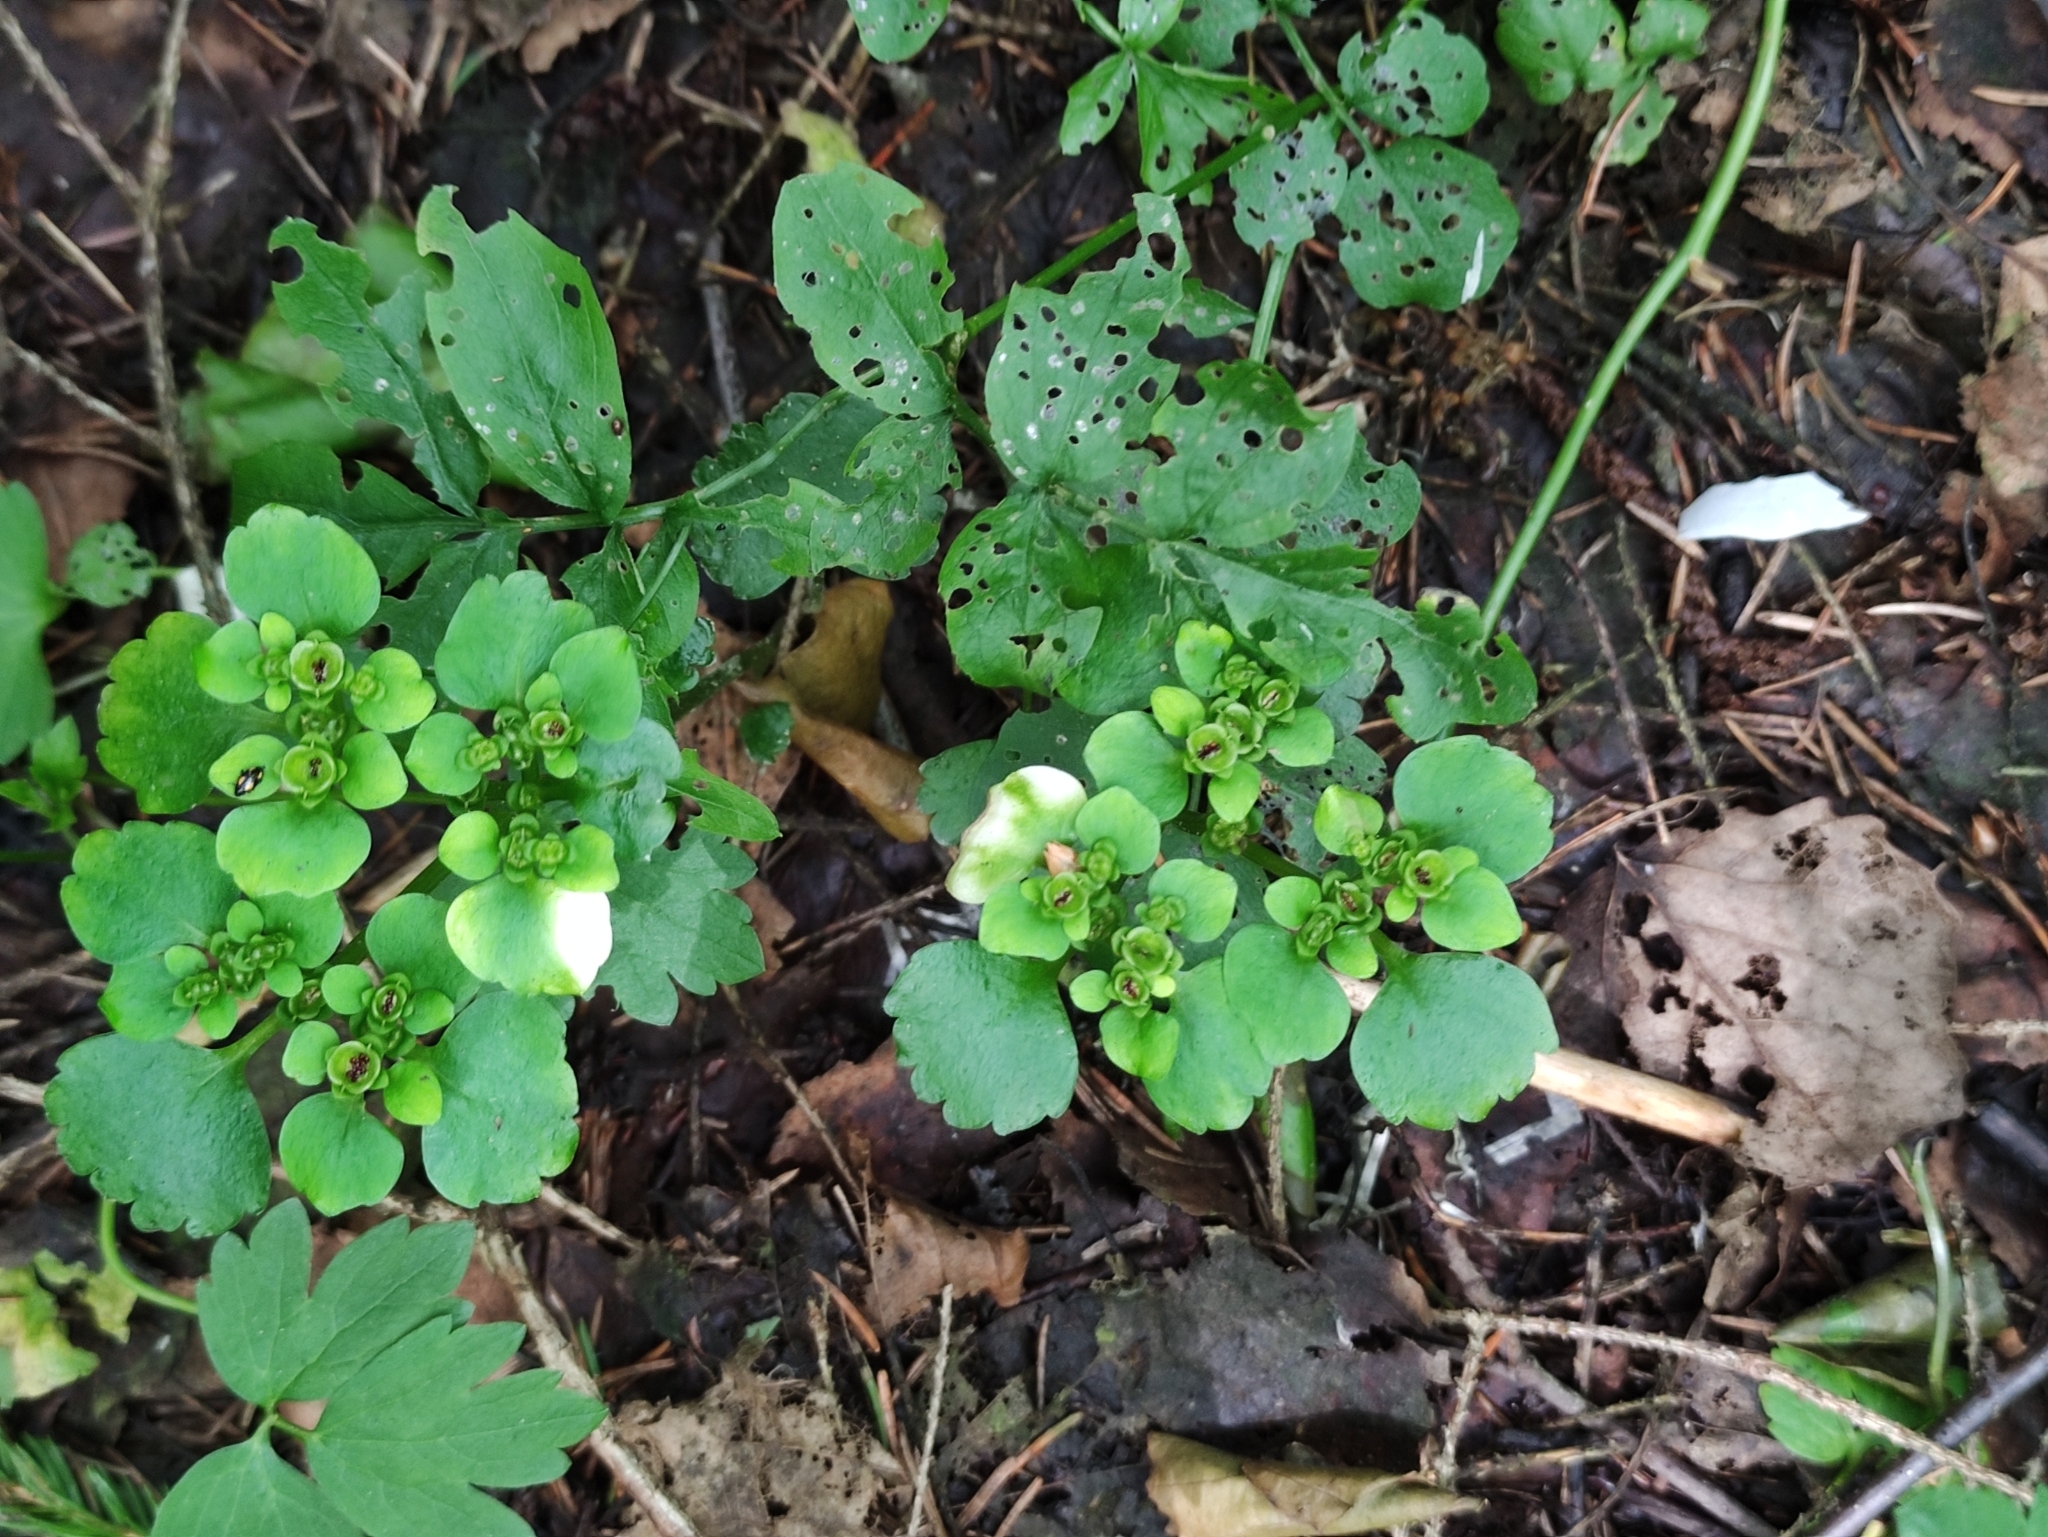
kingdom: Plantae
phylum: Tracheophyta
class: Magnoliopsida
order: Saxifragales
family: Saxifragaceae
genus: Chrysosplenium
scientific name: Chrysosplenium alternifolium
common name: Alternate-leaved golden-saxifrage
